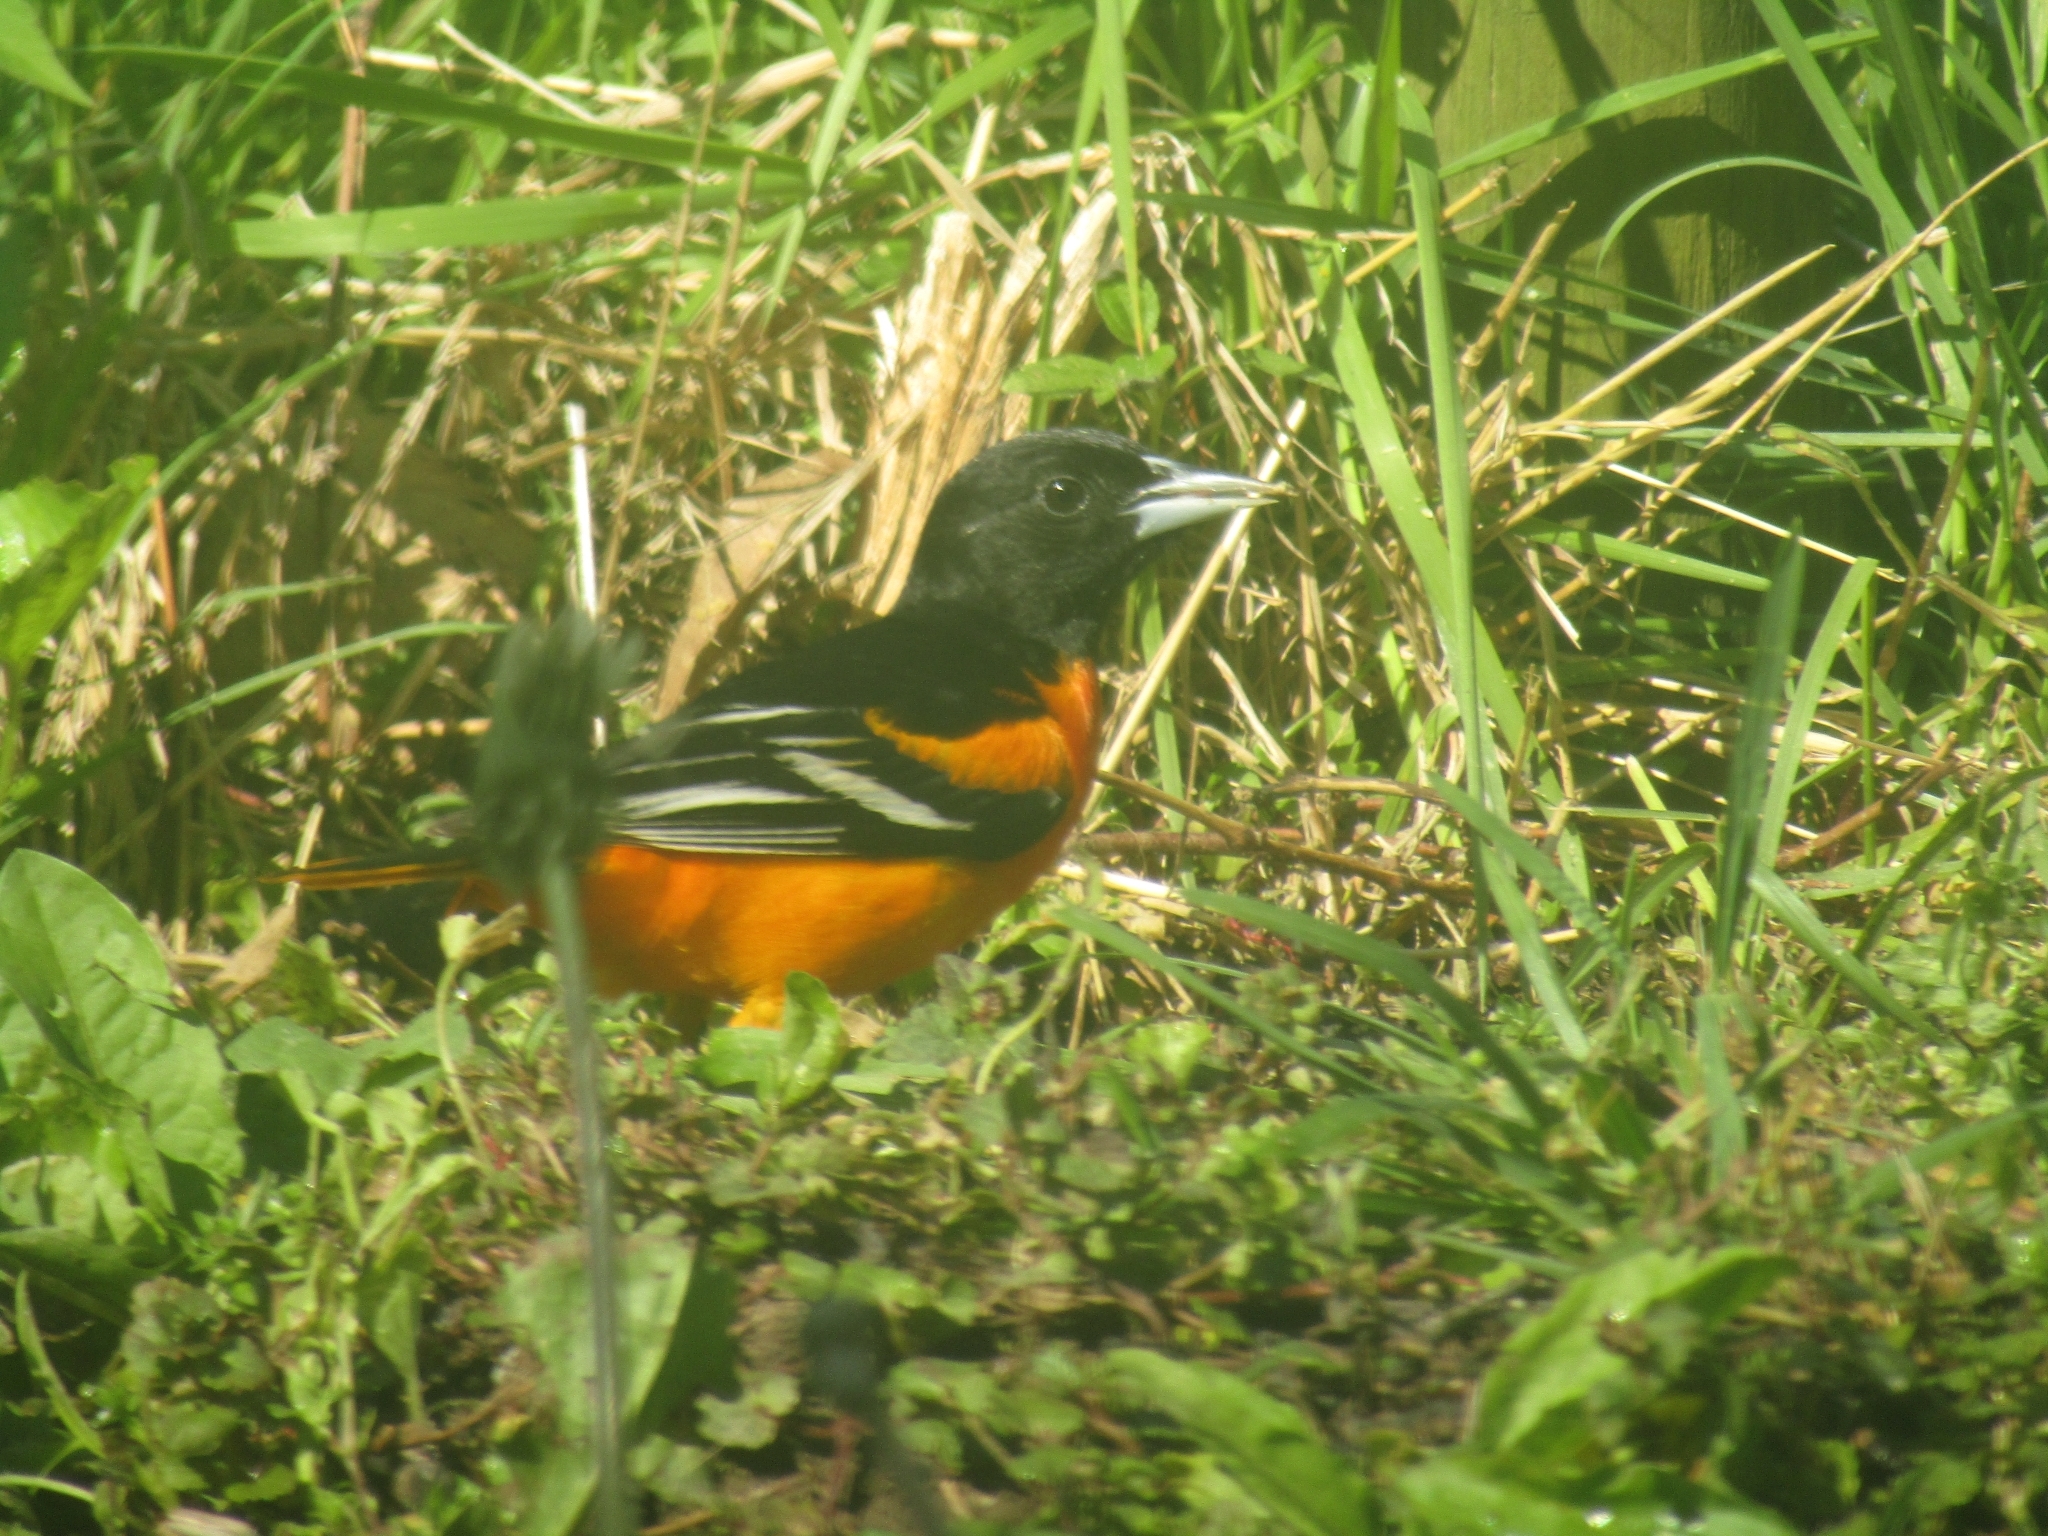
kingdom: Animalia
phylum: Chordata
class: Aves
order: Passeriformes
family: Icteridae
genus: Icterus
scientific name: Icterus galbula
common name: Baltimore oriole
